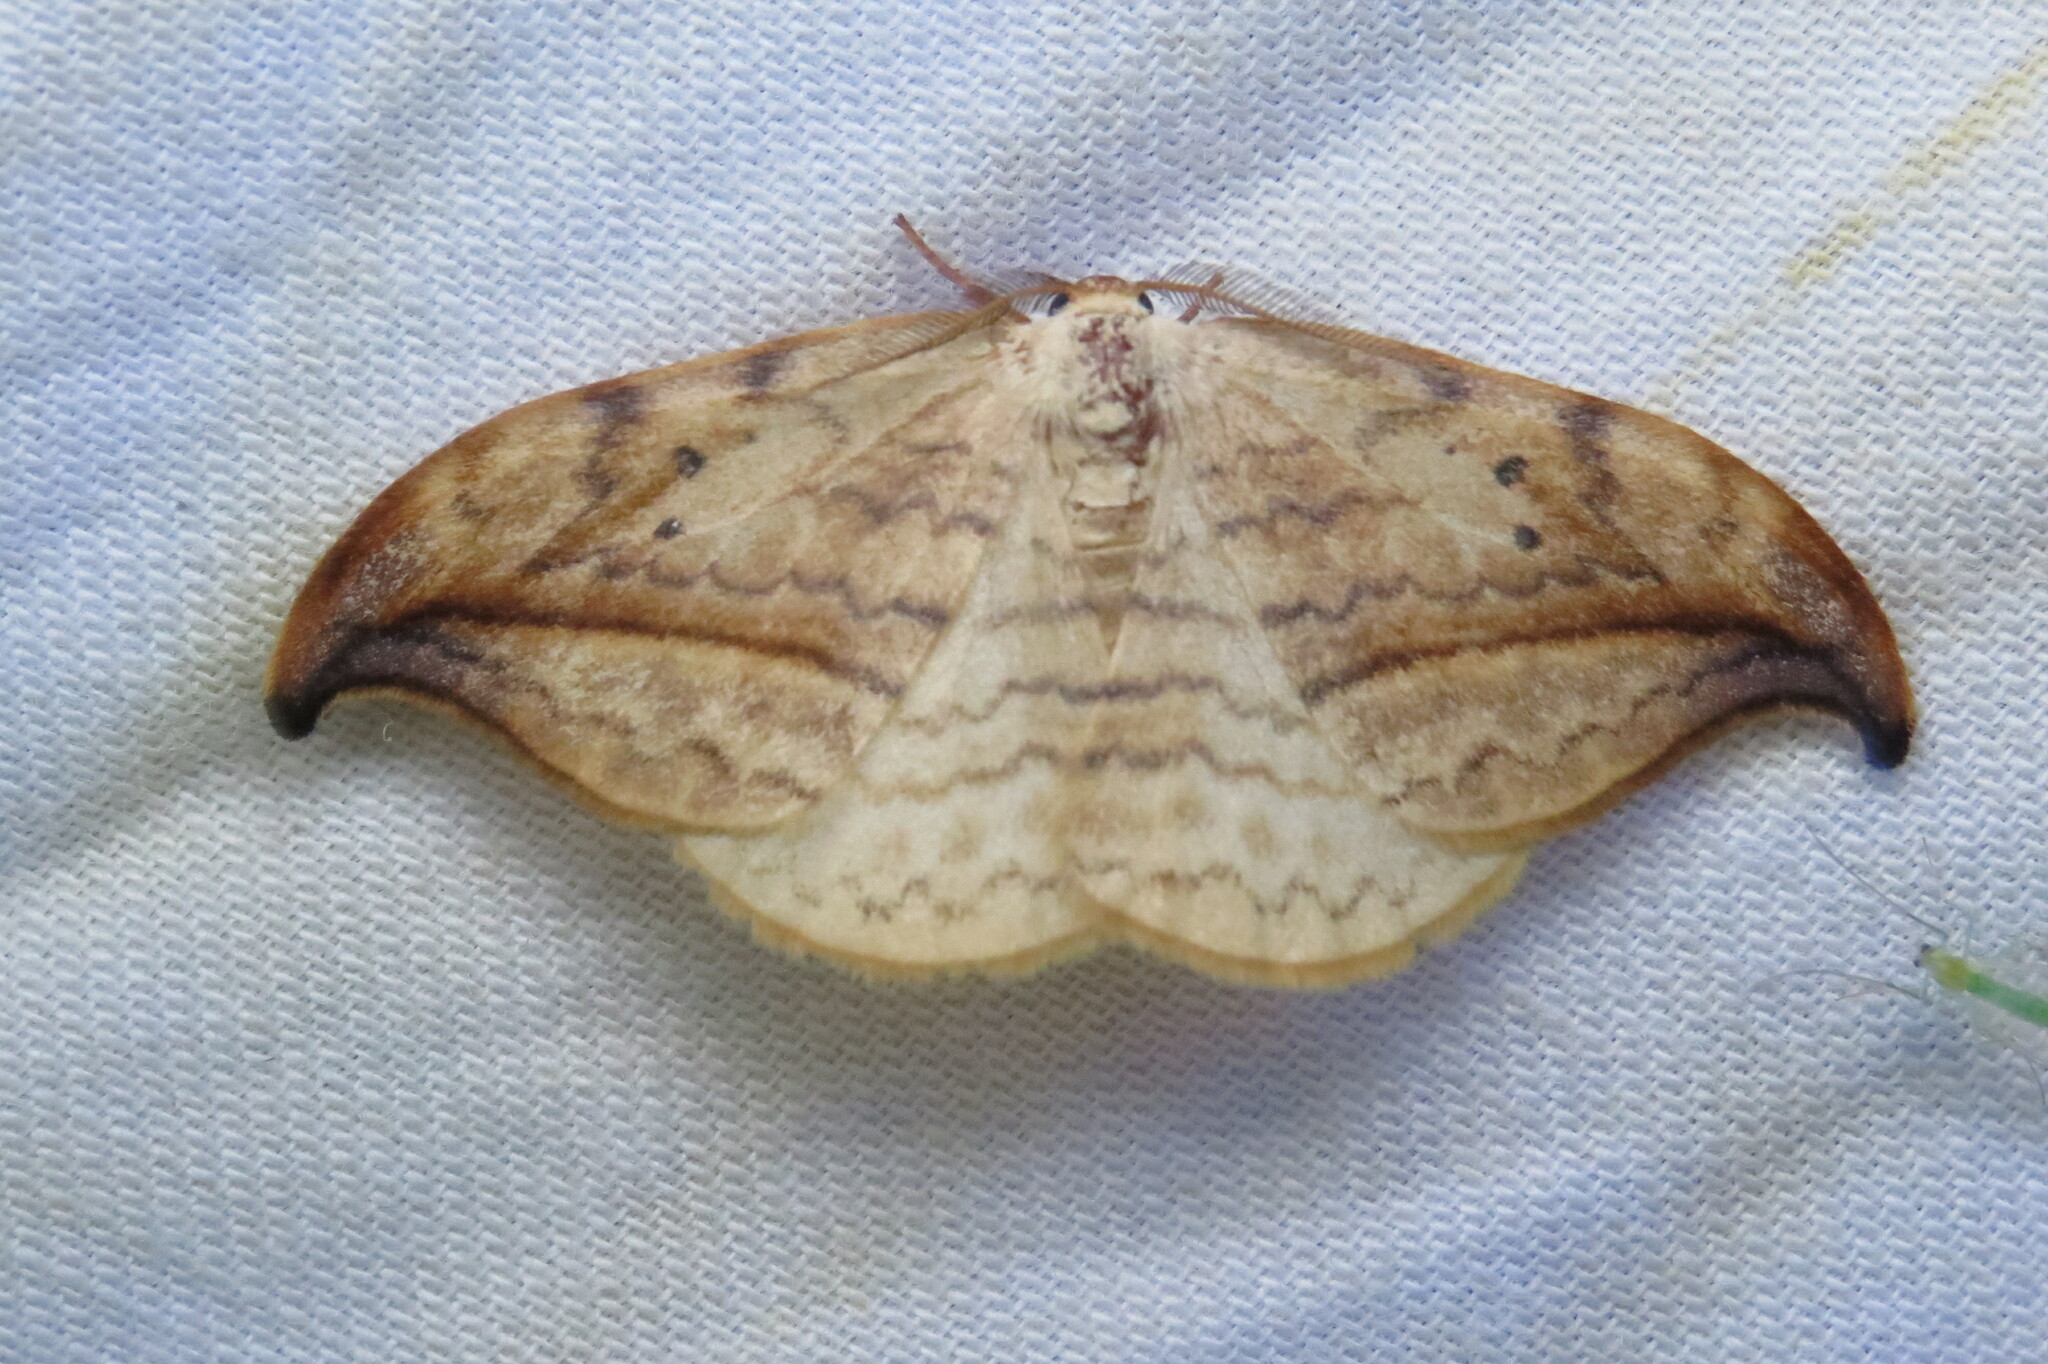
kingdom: Animalia
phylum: Arthropoda
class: Insecta
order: Lepidoptera
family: Drepanidae
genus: Drepana
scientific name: Drepana arcuata
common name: Arched hooktip moth
